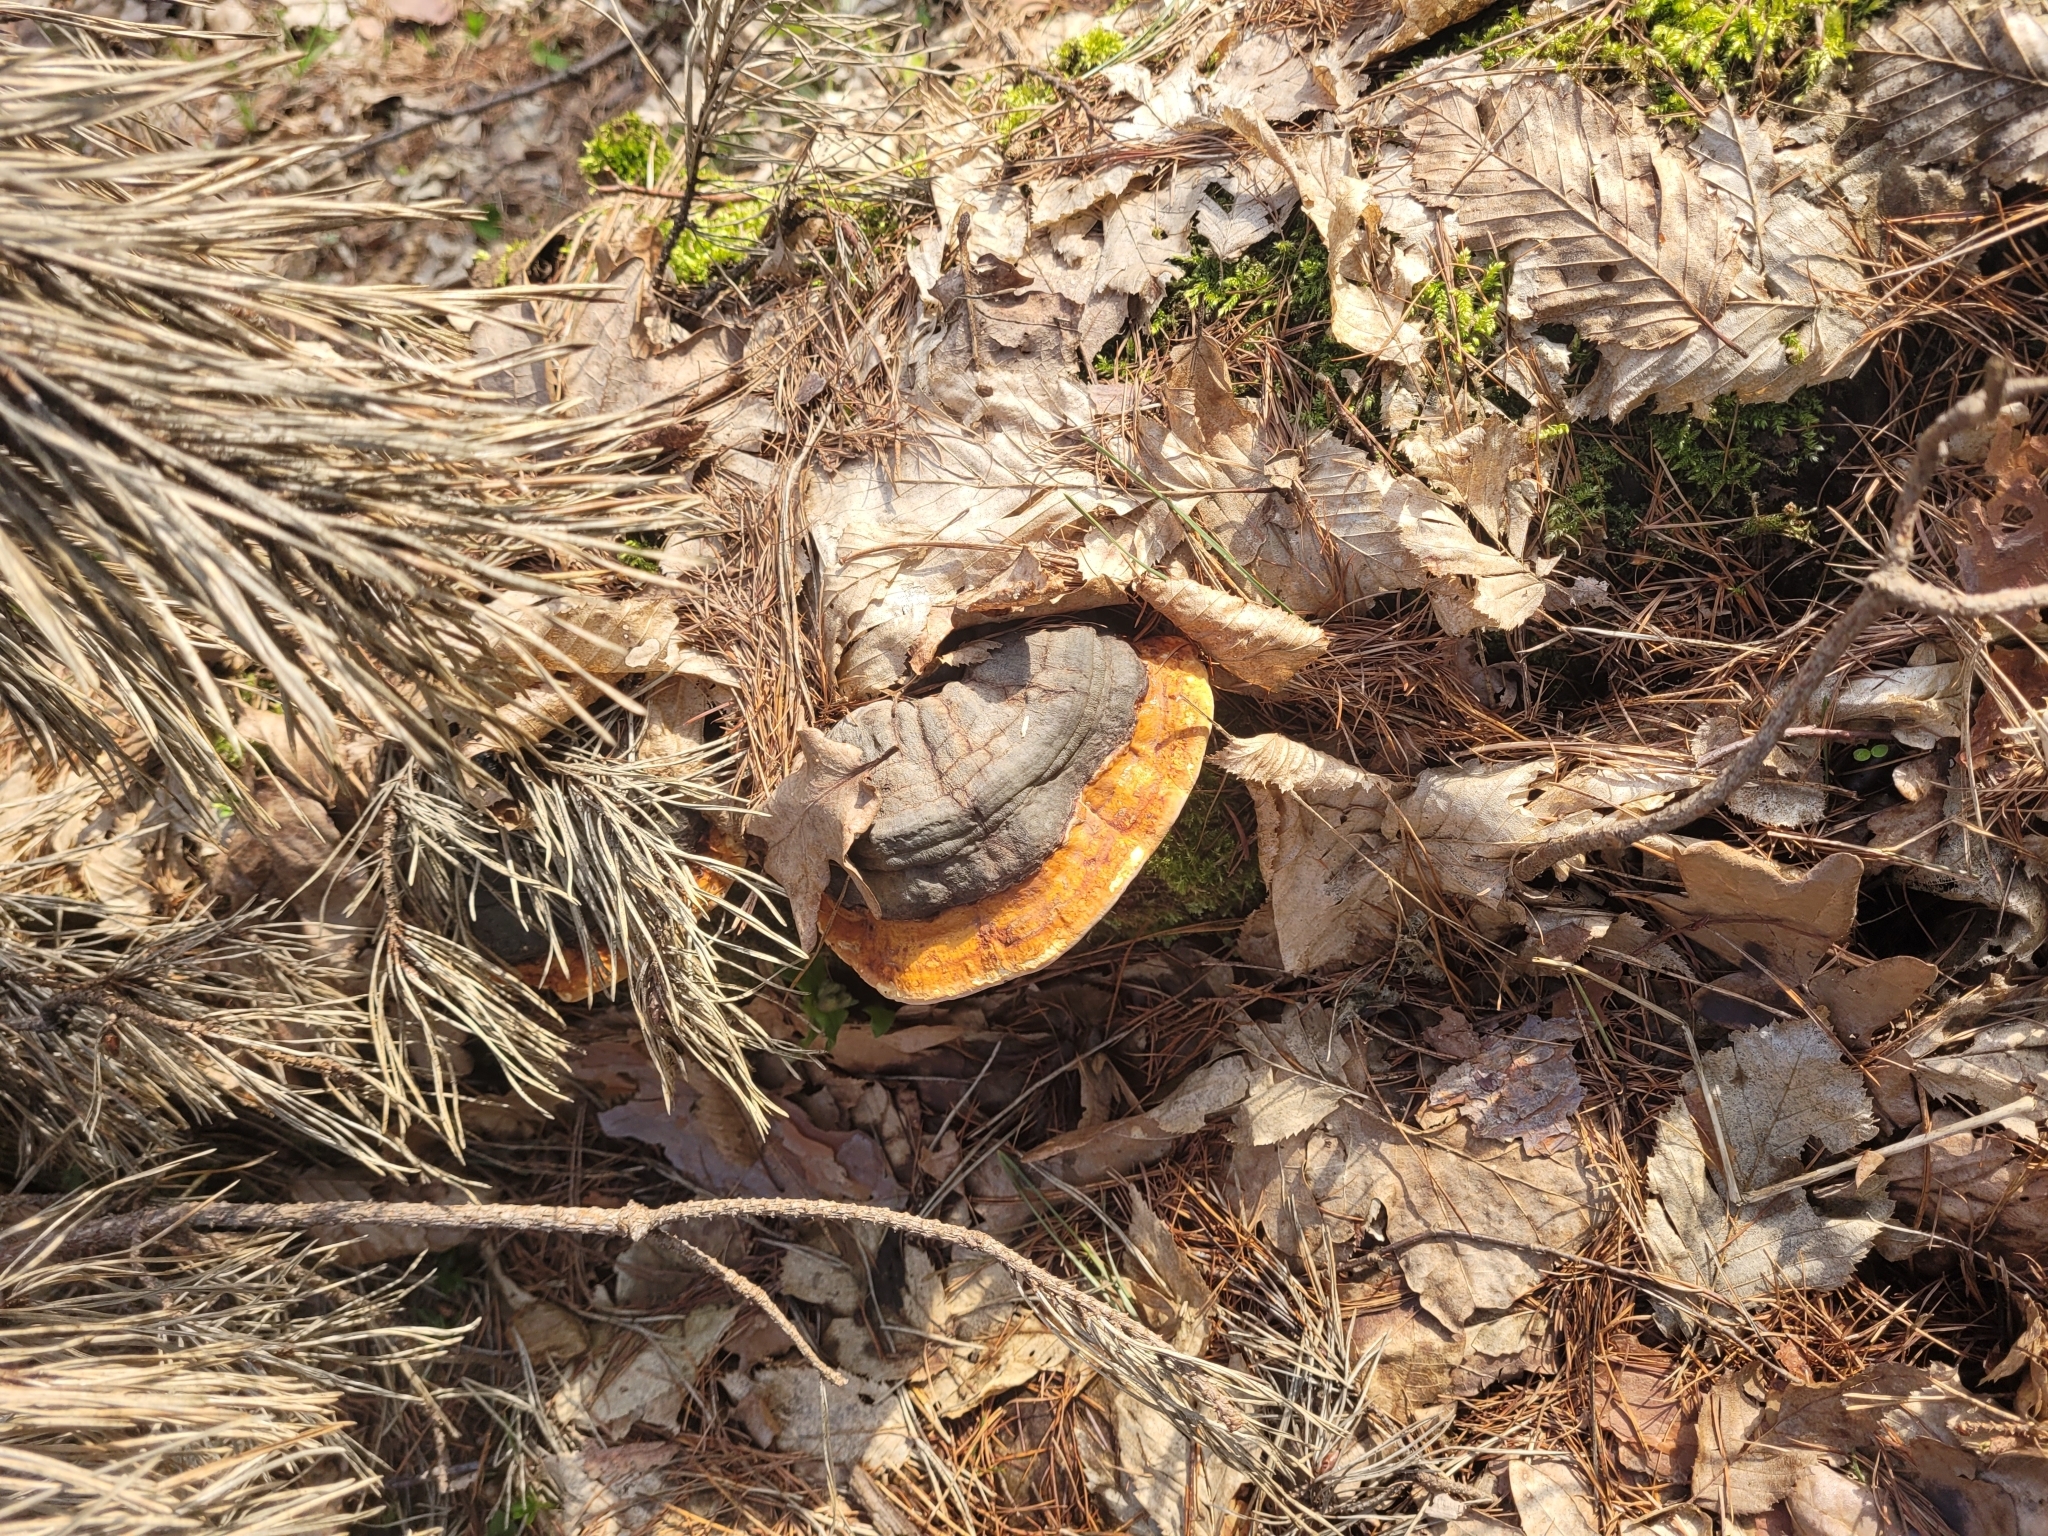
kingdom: Fungi
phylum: Basidiomycota
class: Agaricomycetes
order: Polyporales
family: Fomitopsidaceae
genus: Fomitopsis
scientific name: Fomitopsis pinicola
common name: Red-belted bracket
